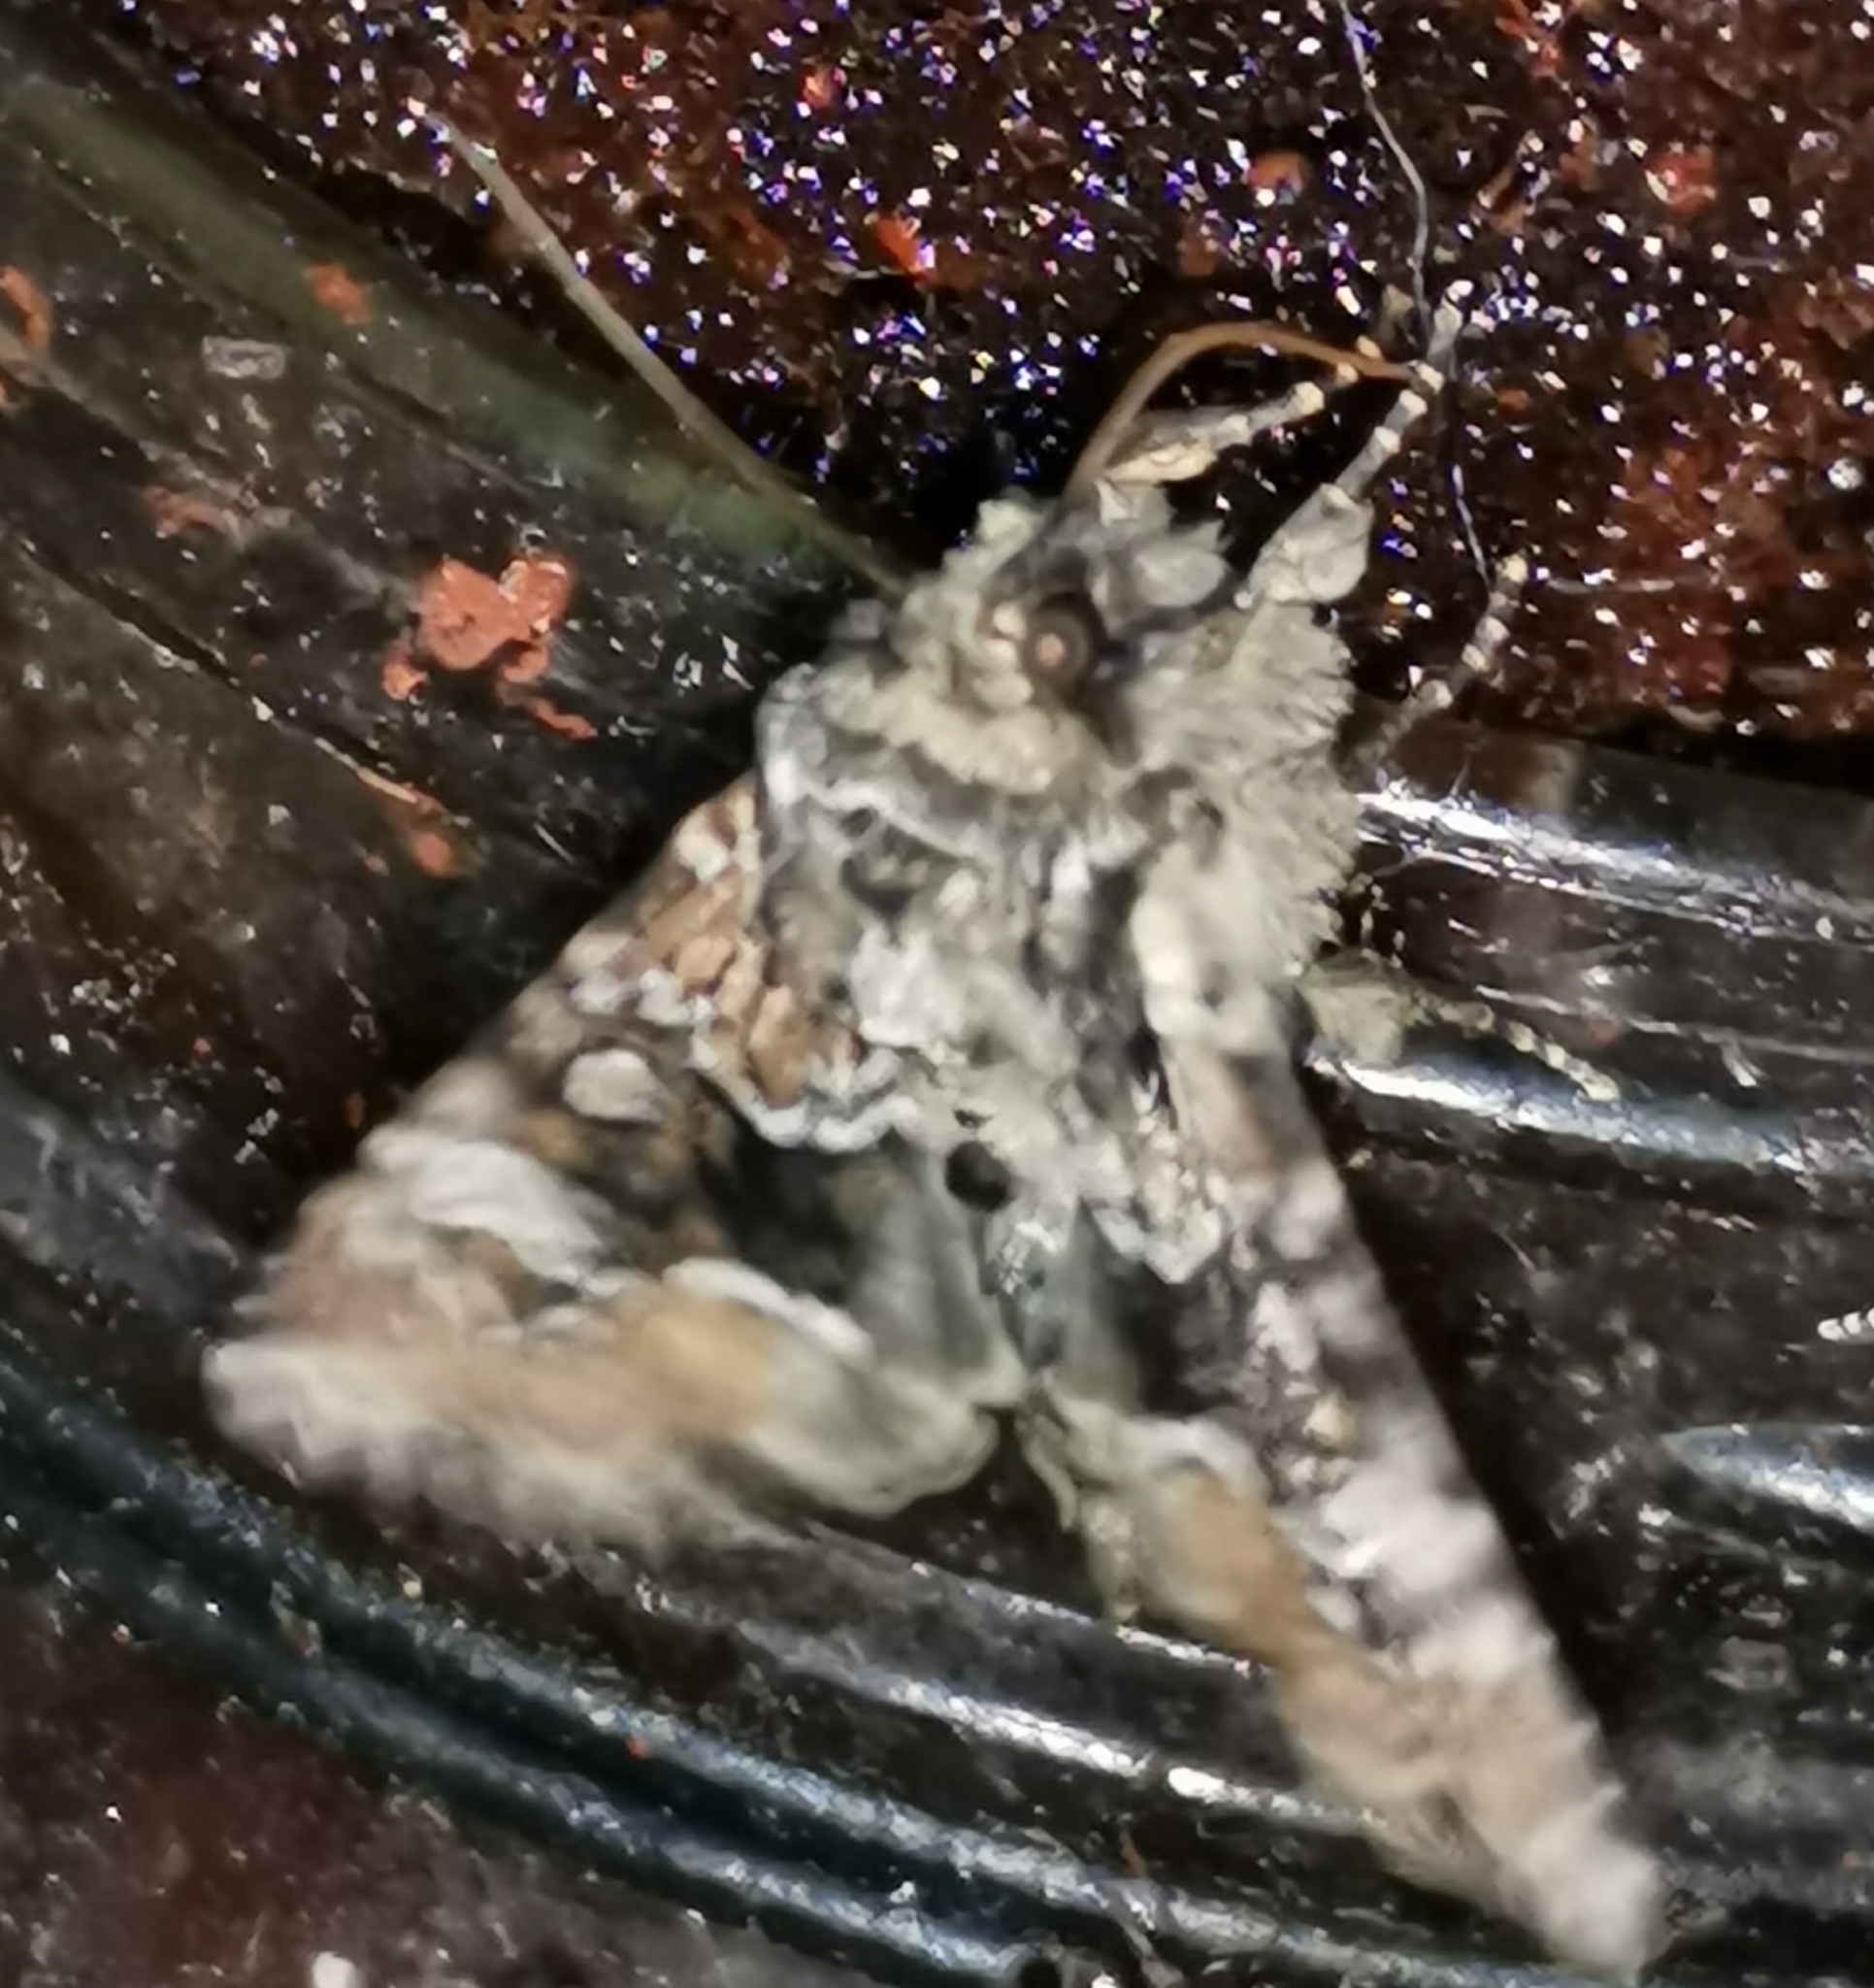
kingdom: Animalia
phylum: Arthropoda
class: Insecta
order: Lepidoptera
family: Noctuidae
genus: Apamea
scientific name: Apamea illyria
